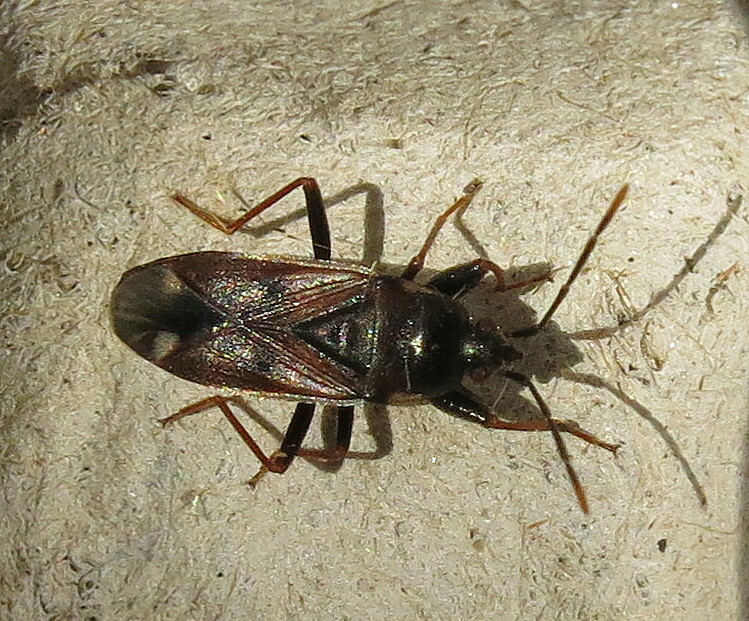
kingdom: Animalia
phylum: Arthropoda
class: Insecta
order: Hemiptera
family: Rhyparochromidae
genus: Eremocoris
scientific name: Eremocoris fenestratus
